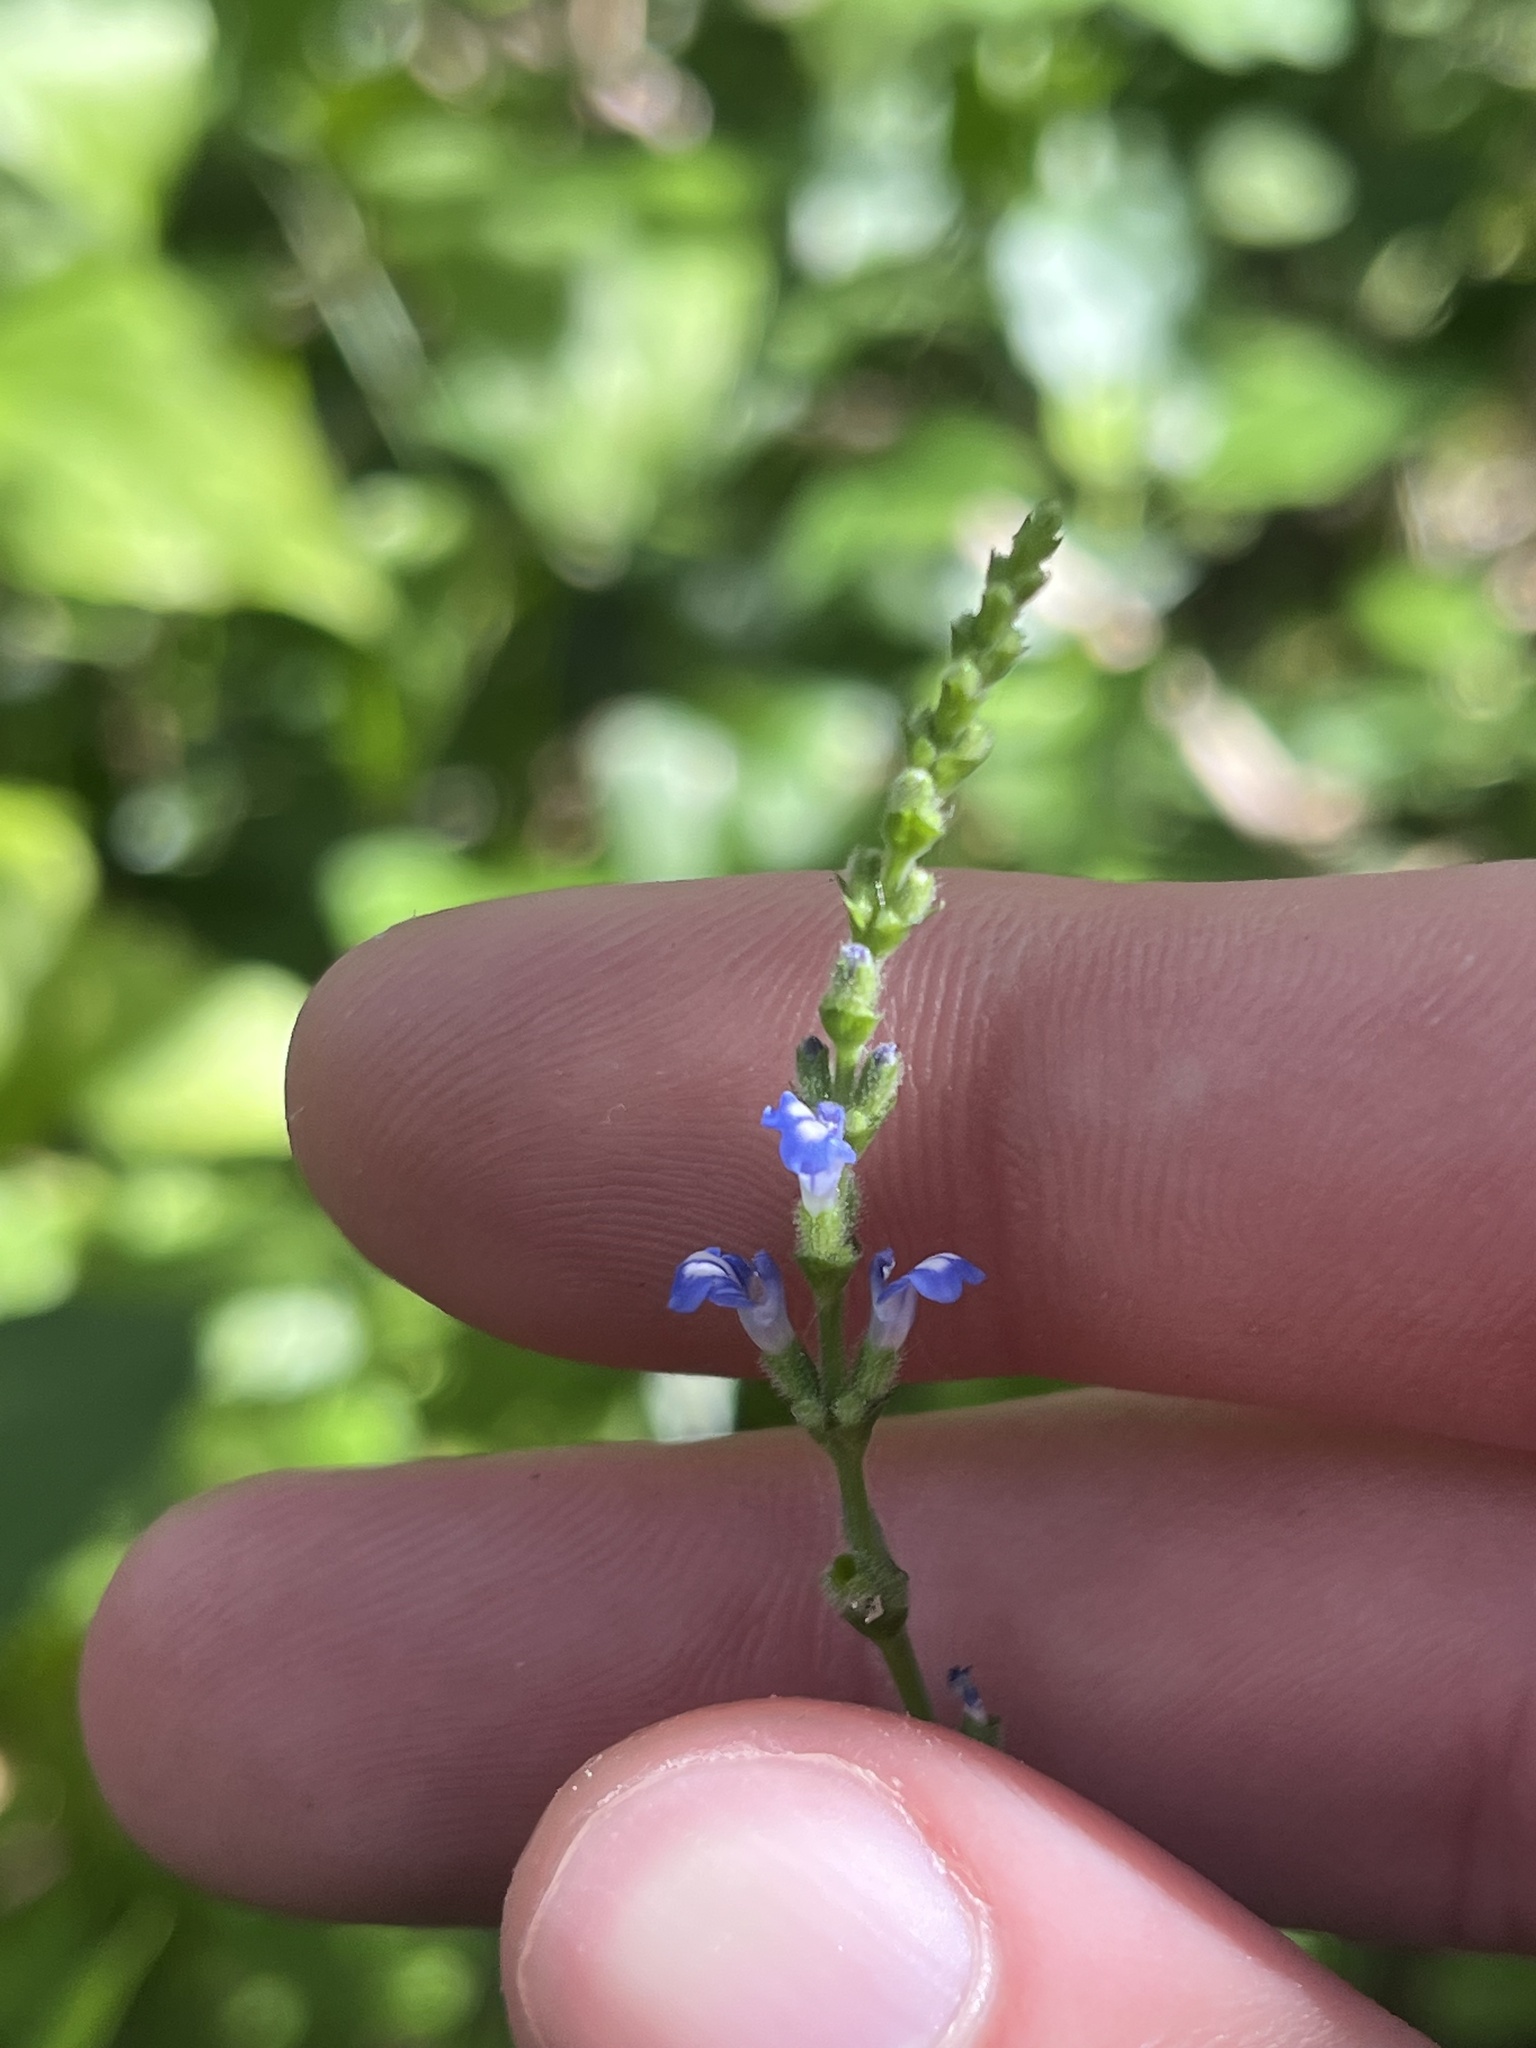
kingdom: Plantae
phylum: Tracheophyta
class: Magnoliopsida
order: Lamiales
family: Lamiaceae
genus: Salvia
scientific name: Salvia occidentalis
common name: West indian sage
